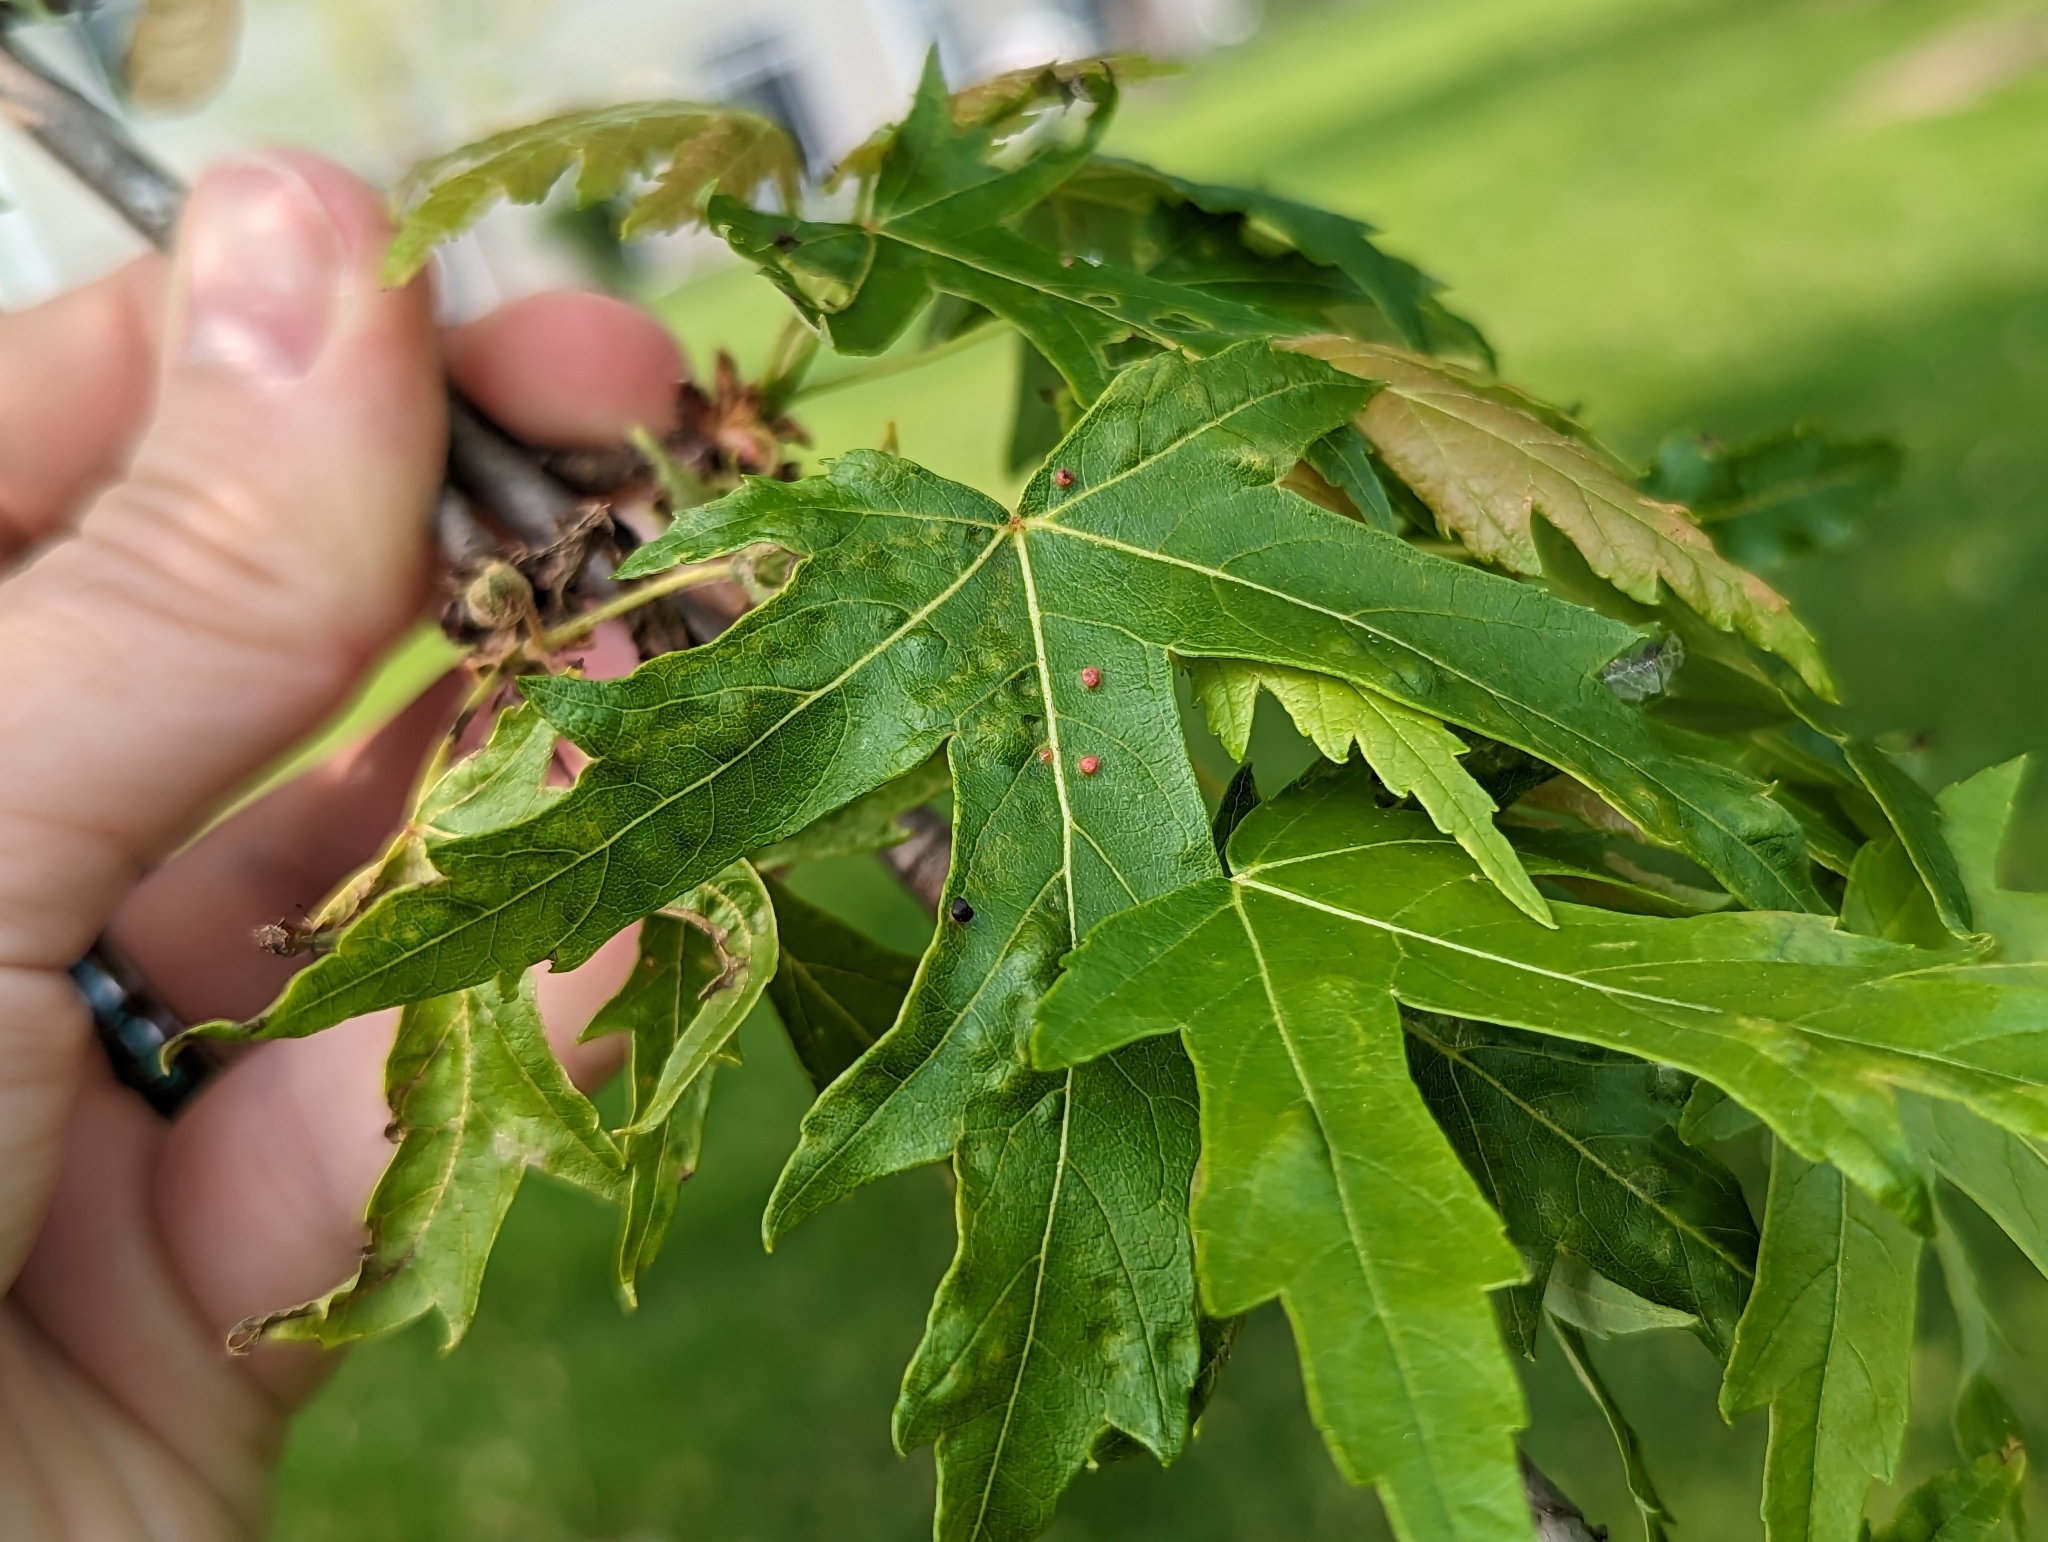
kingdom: Animalia
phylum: Arthropoda
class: Arachnida
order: Trombidiformes
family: Eriophyidae
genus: Vasates
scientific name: Vasates quadripedes
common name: Maple bladder gall mite
